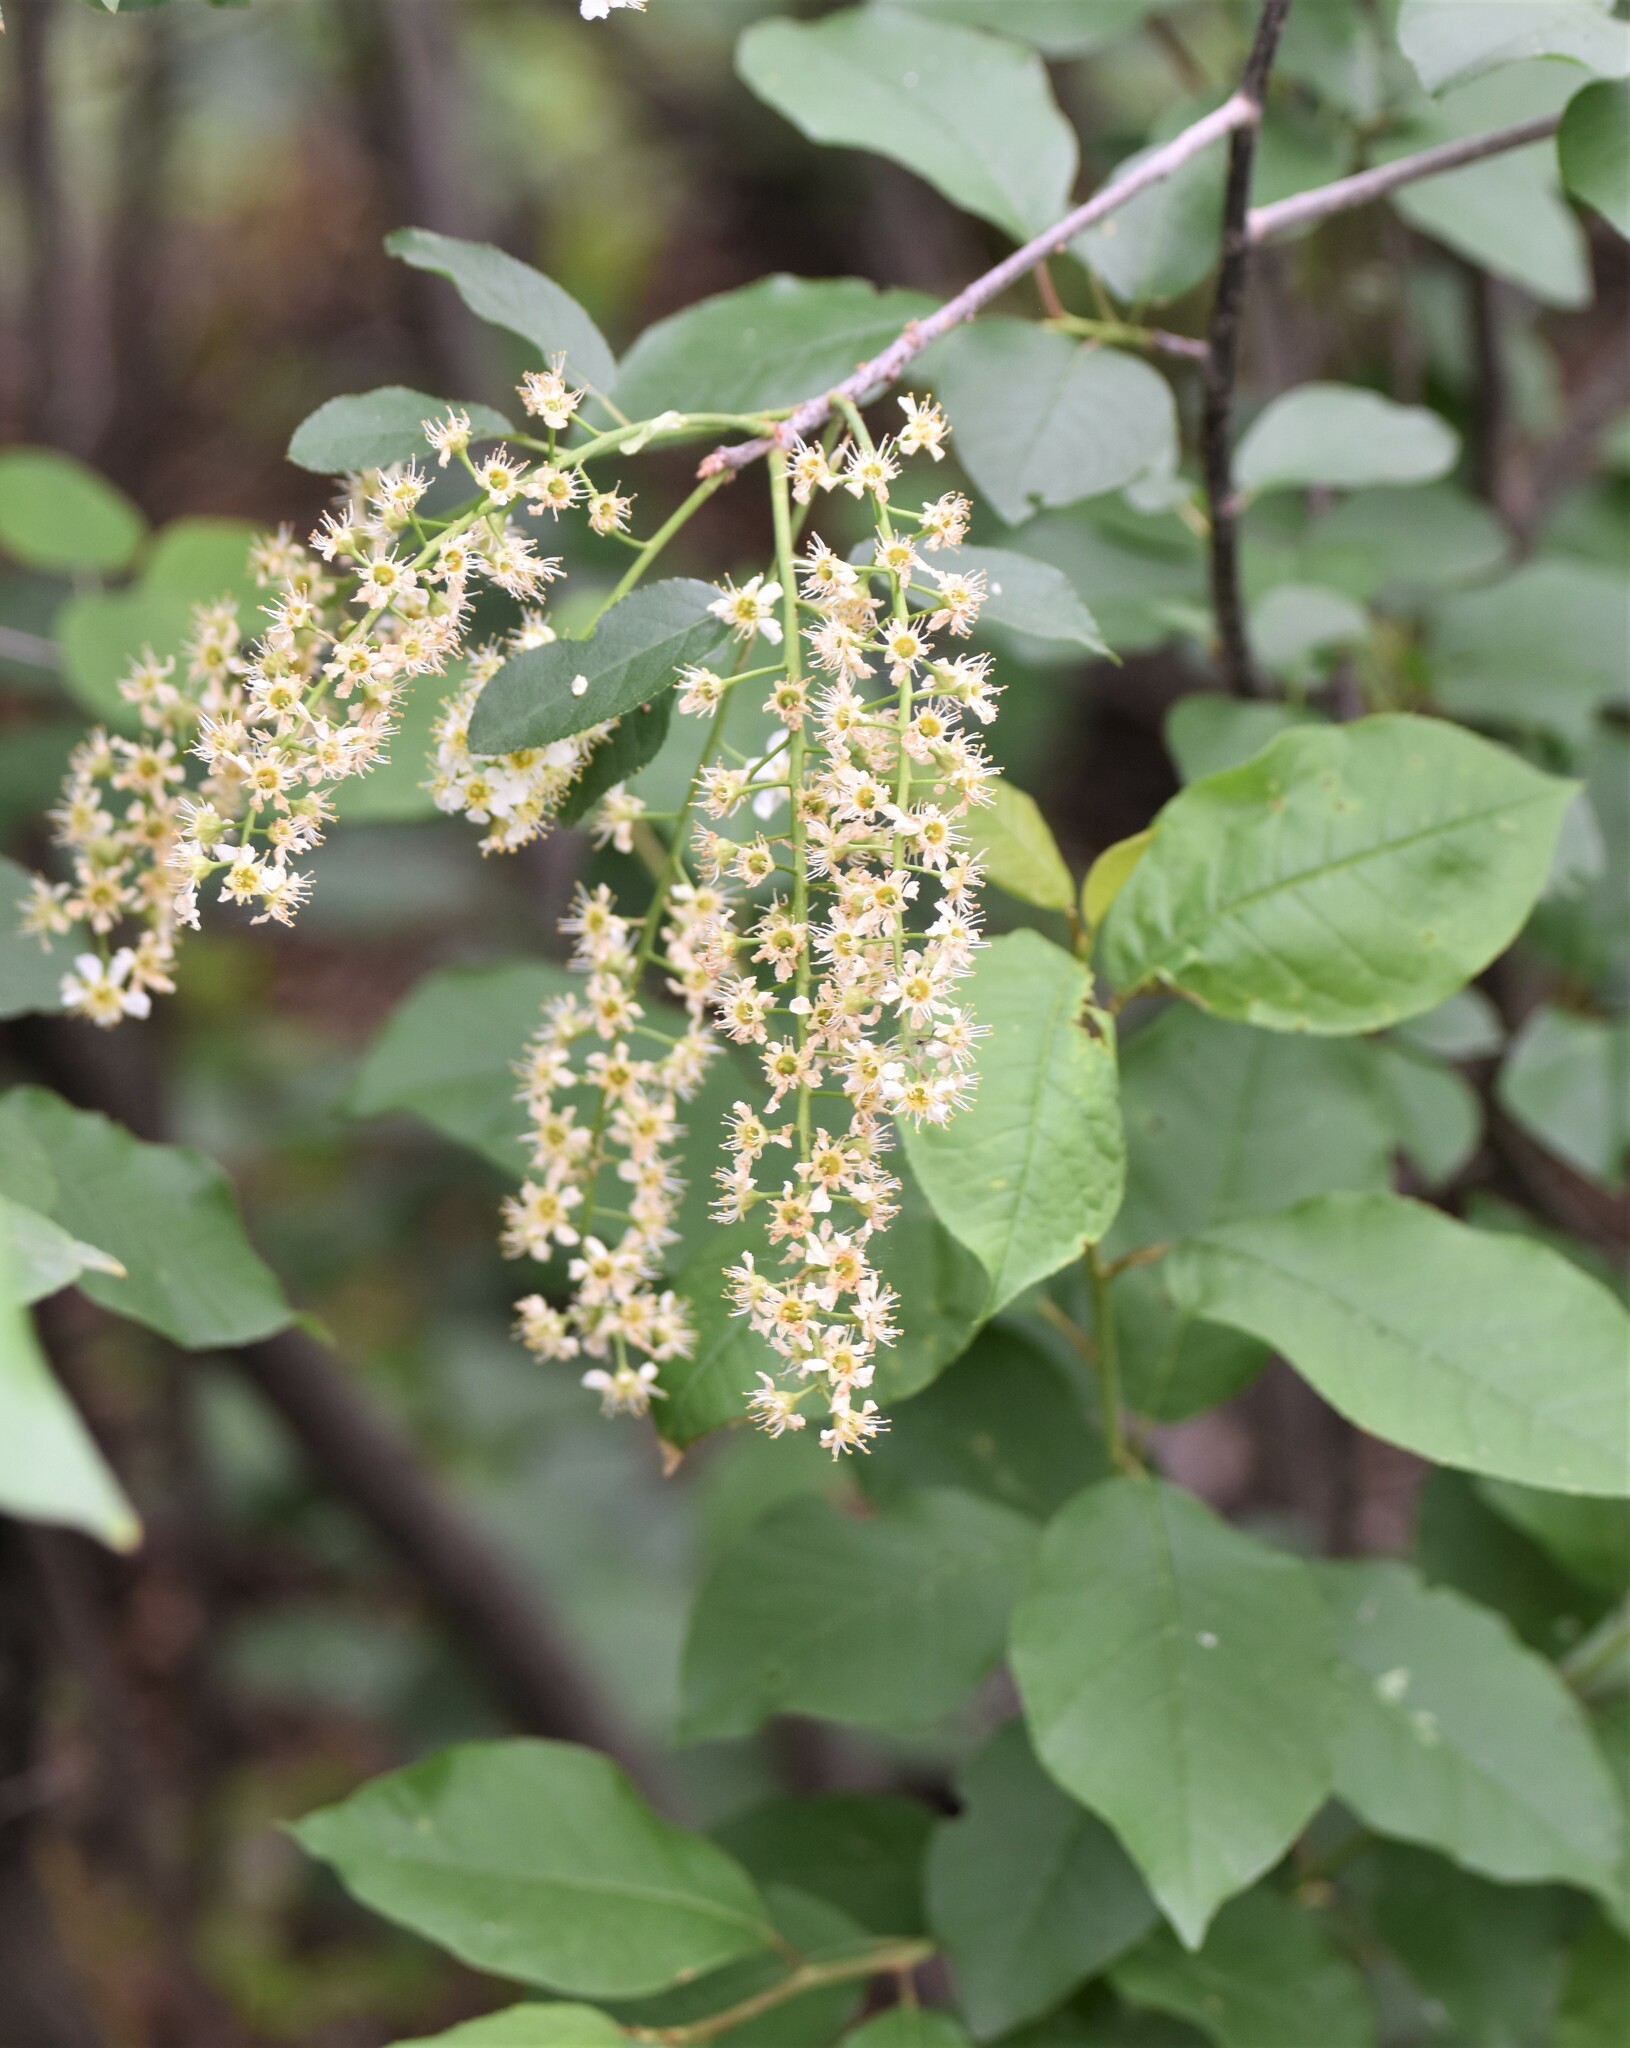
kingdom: Plantae
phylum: Tracheophyta
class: Magnoliopsida
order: Rosales
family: Rosaceae
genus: Prunus
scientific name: Prunus virginiana
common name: Chokecherry
